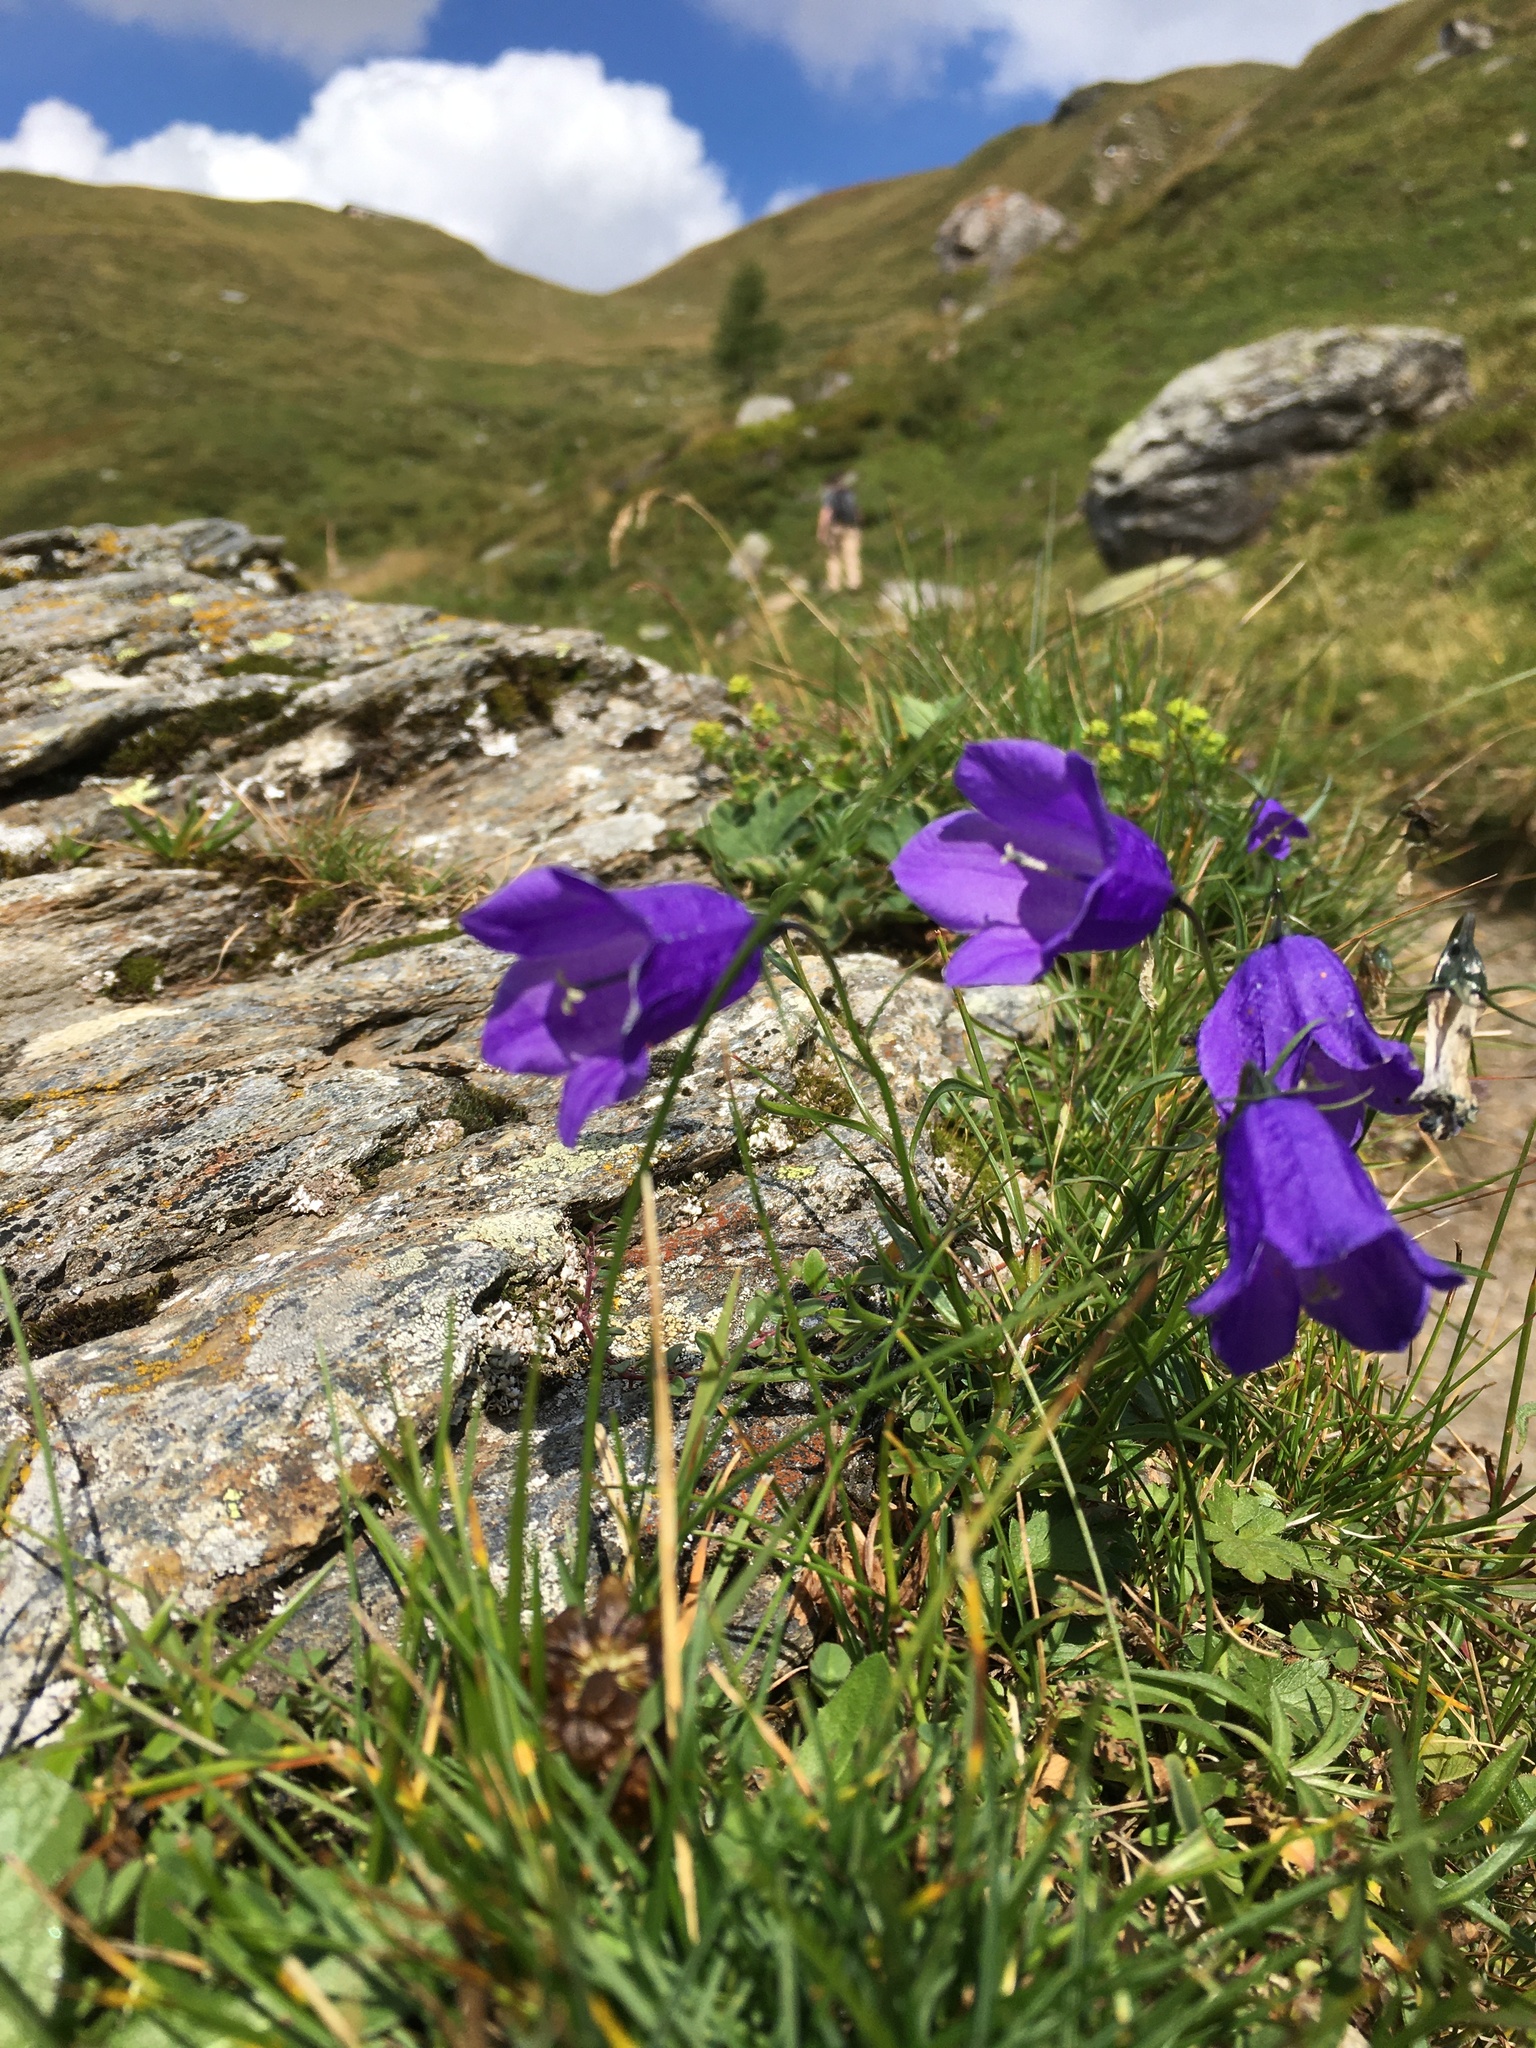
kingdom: Plantae
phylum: Tracheophyta
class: Magnoliopsida
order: Asterales
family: Campanulaceae
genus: Campanula
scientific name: Campanula scheuchzeri
